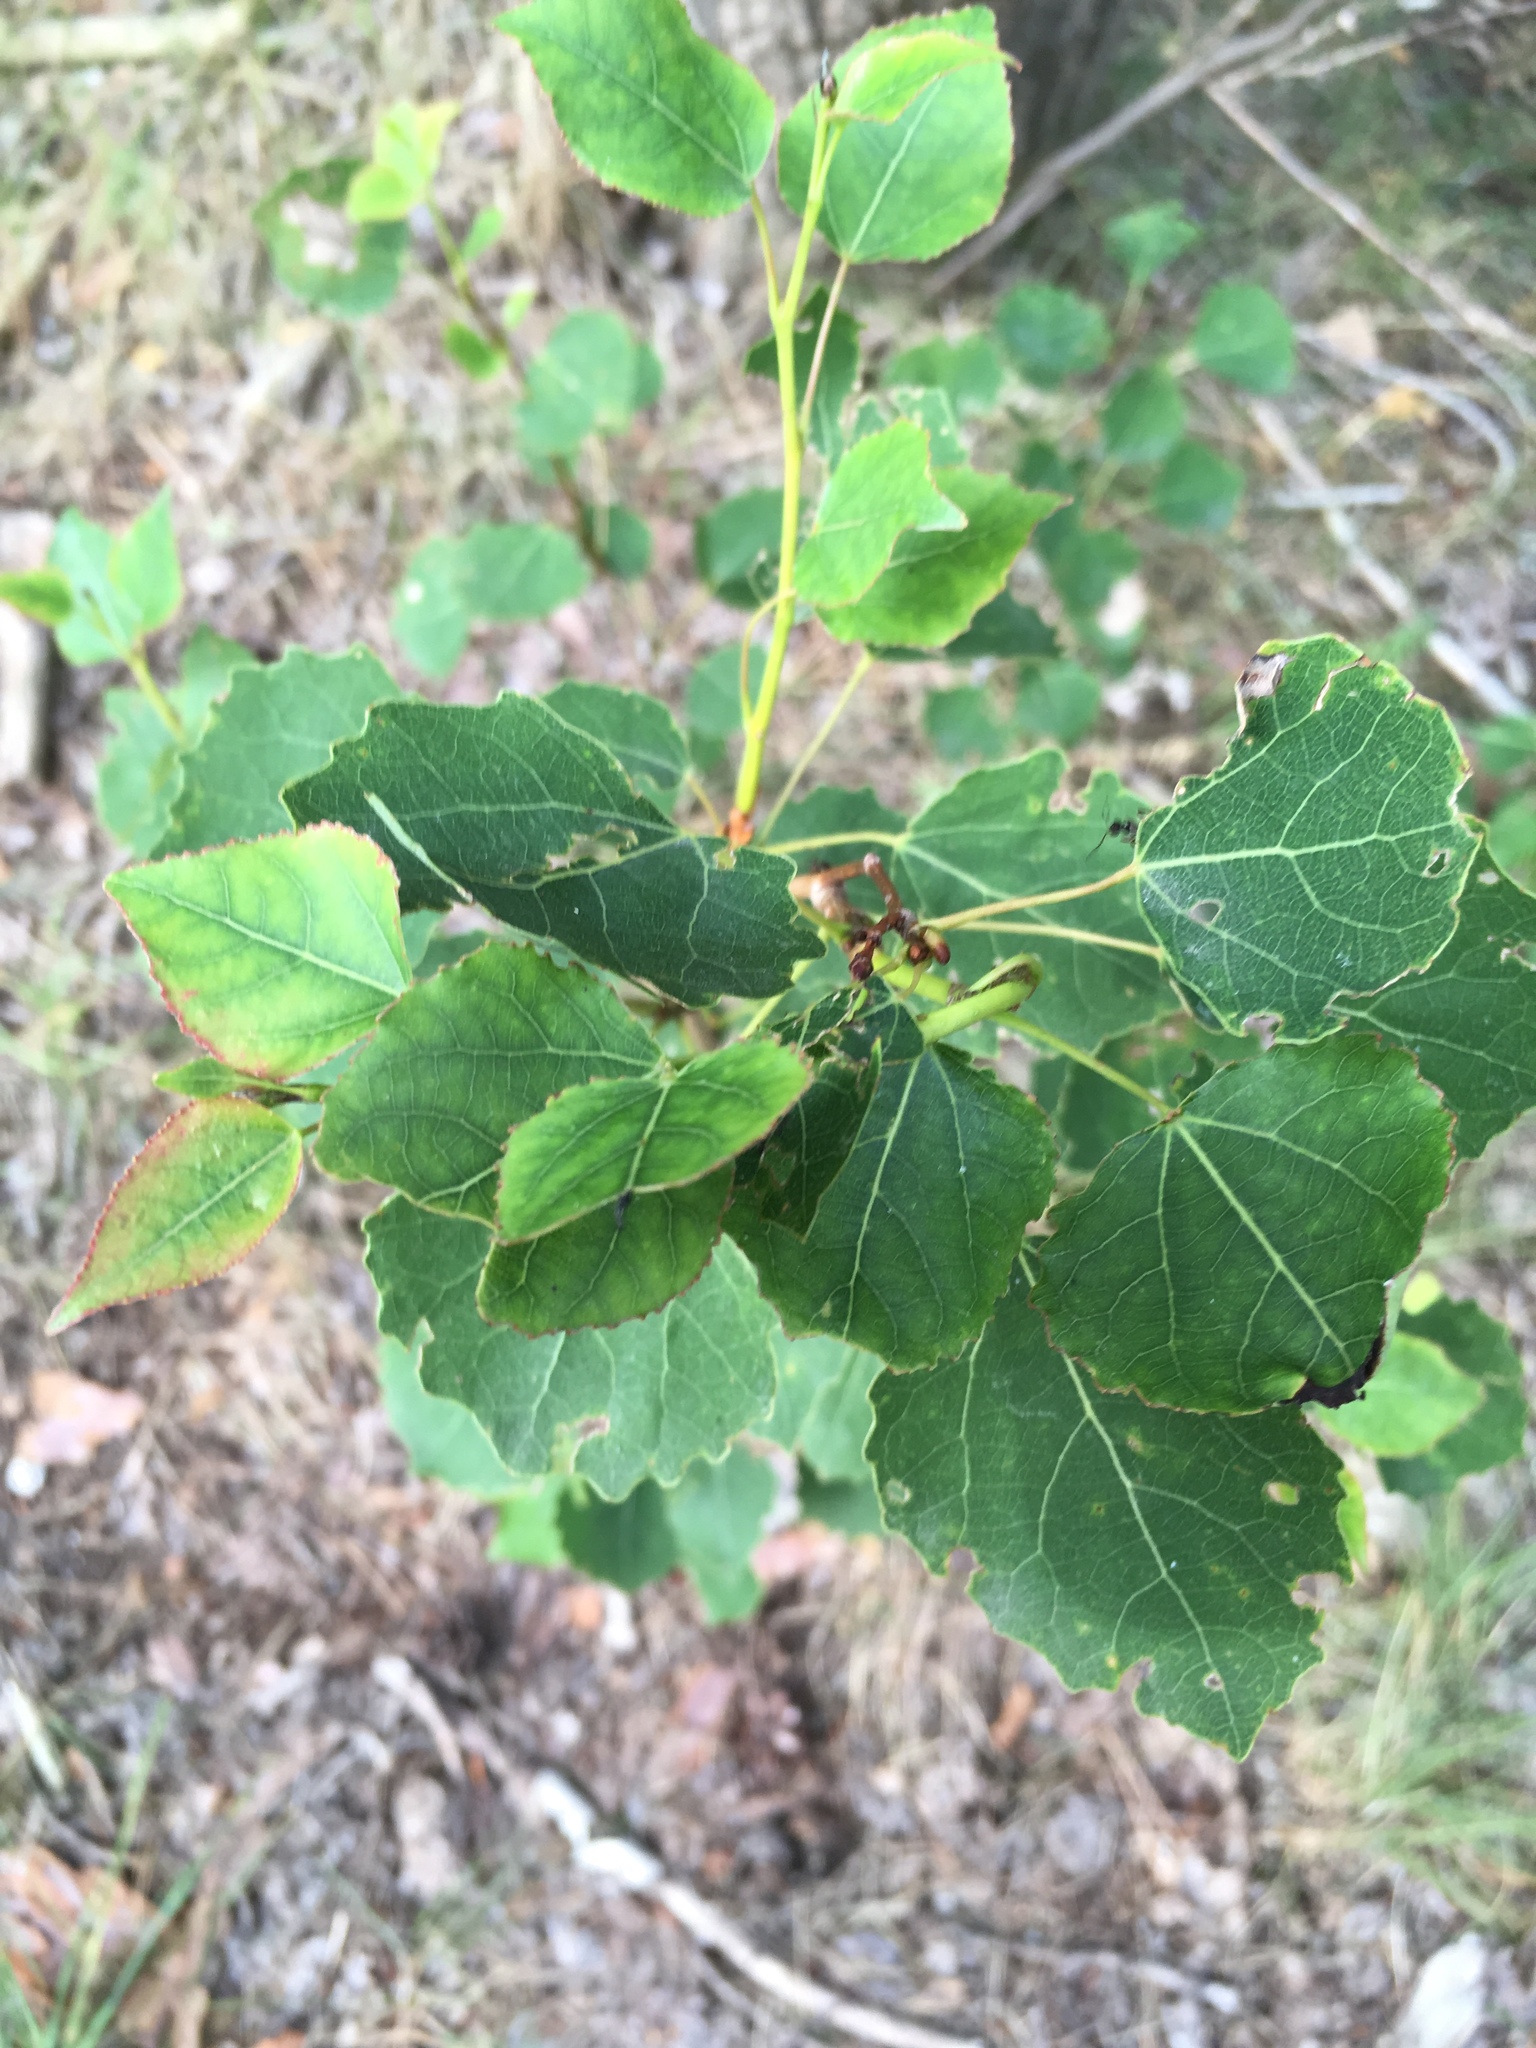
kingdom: Plantae
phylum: Tracheophyta
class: Magnoliopsida
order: Malpighiales
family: Salicaceae
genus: Populus
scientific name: Populus tremula
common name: European aspen
